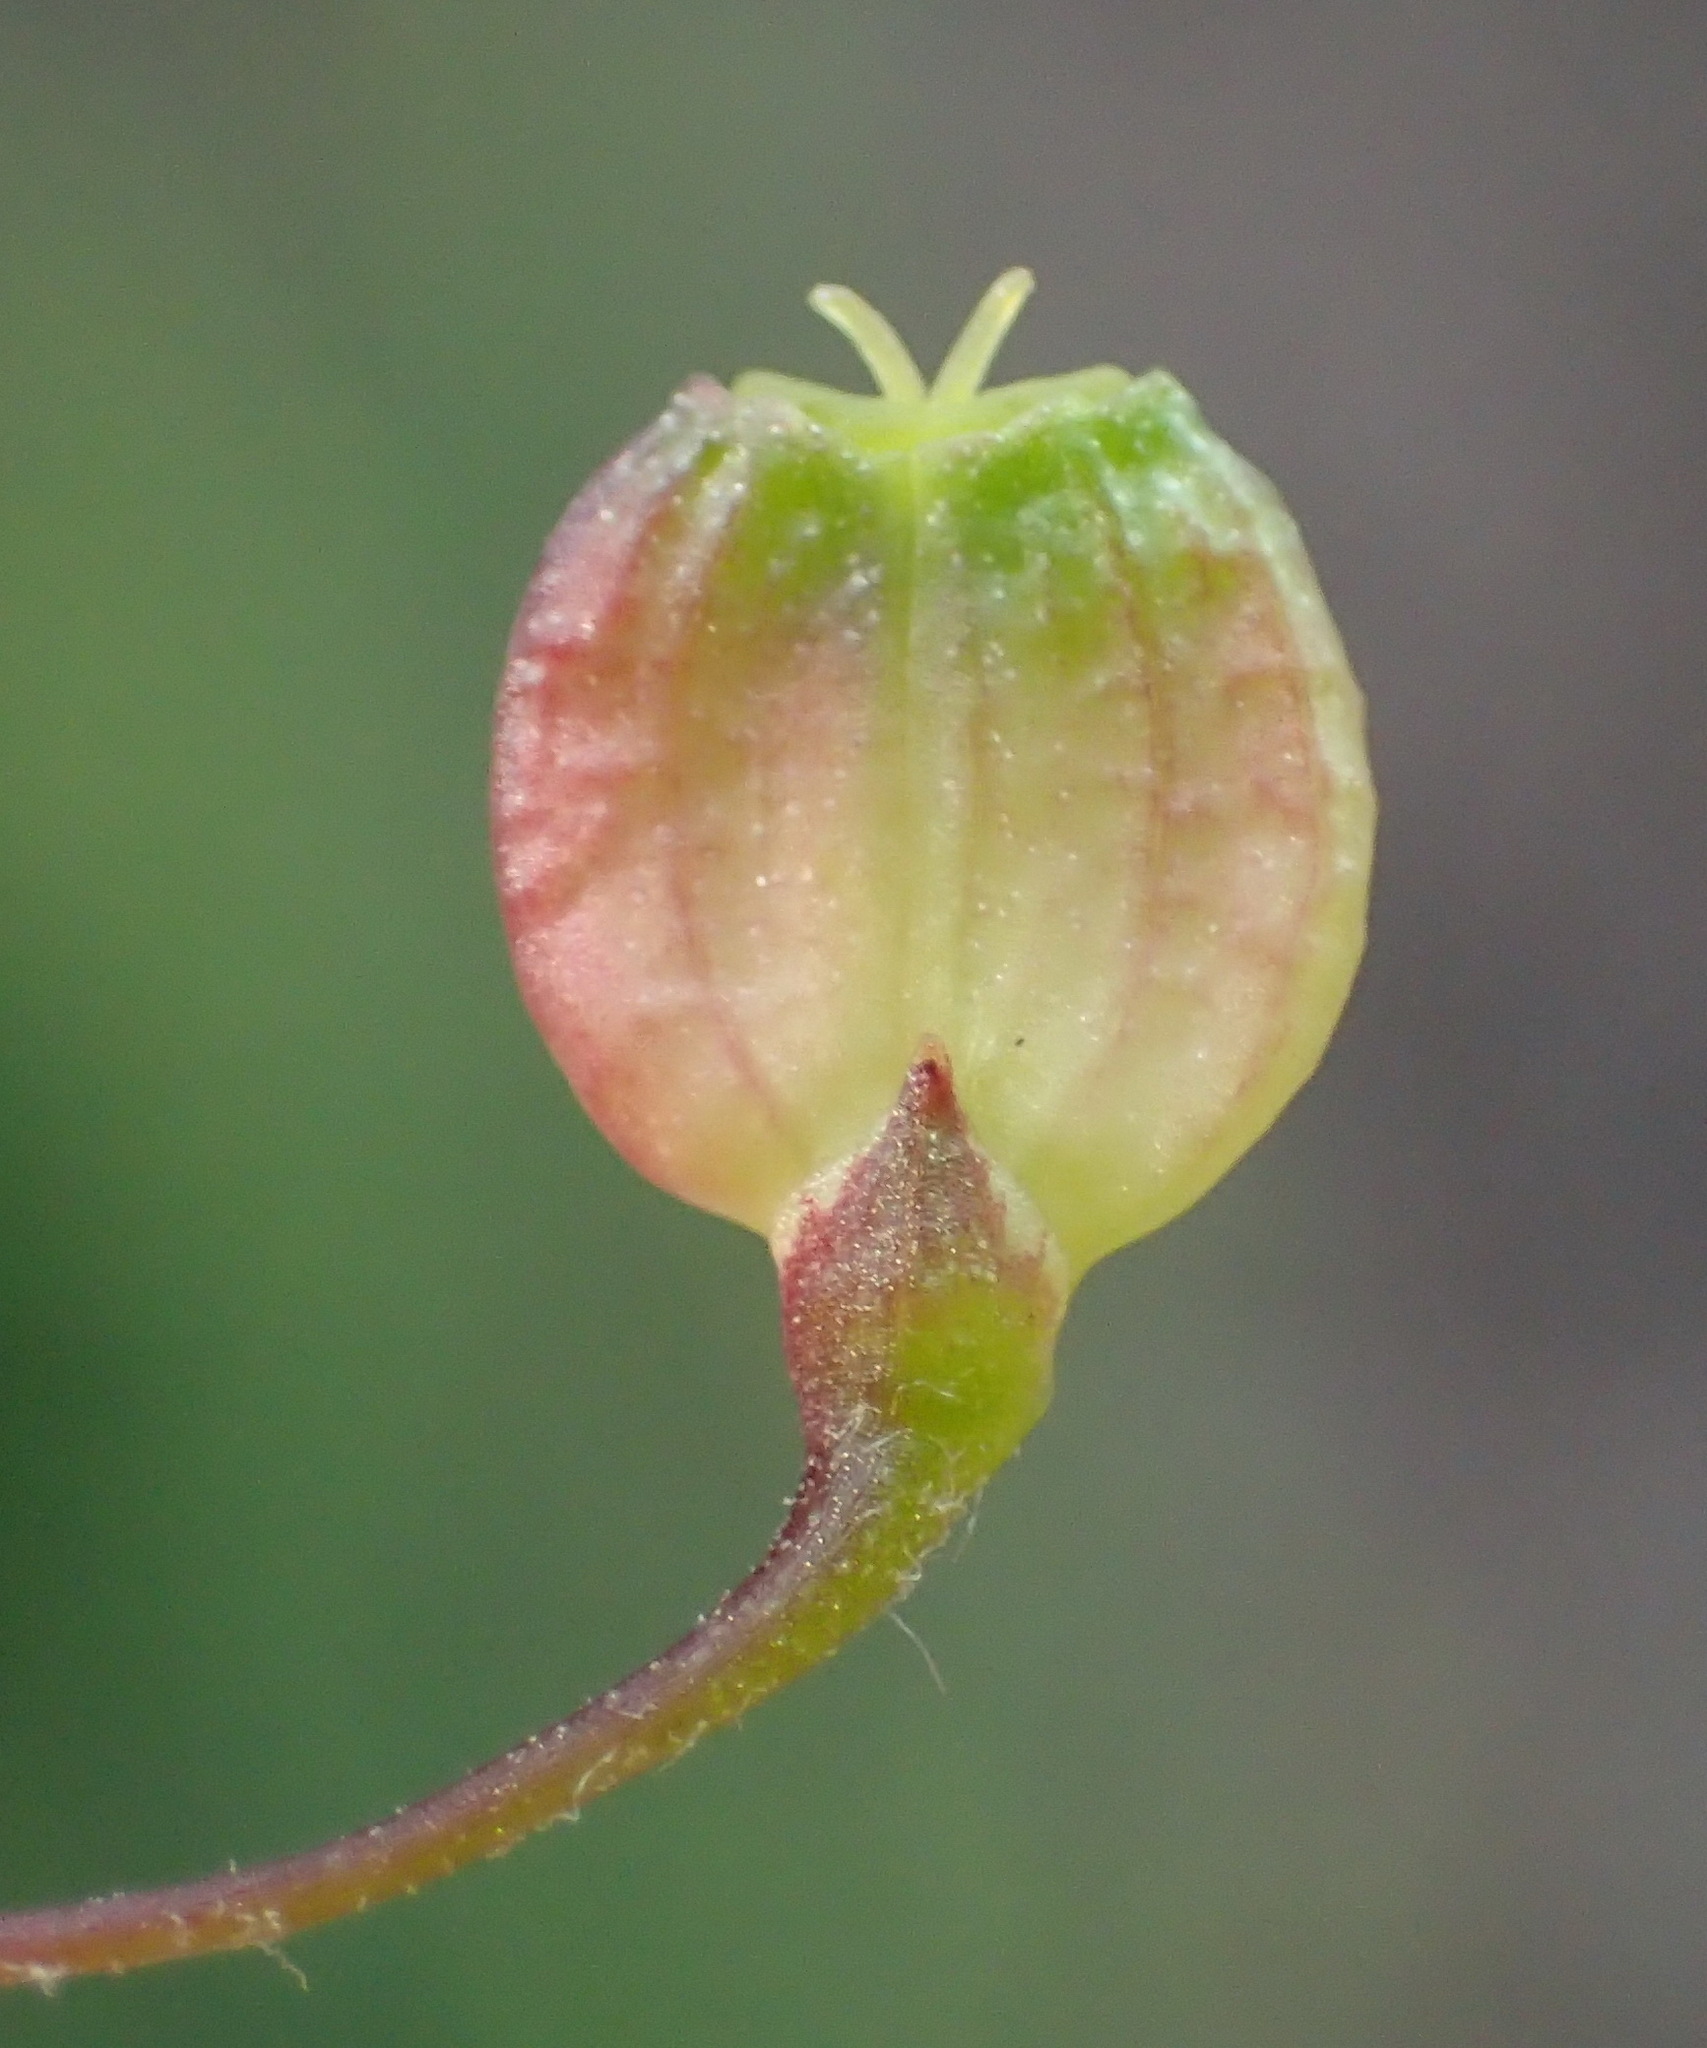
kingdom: Plantae
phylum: Tracheophyta
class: Magnoliopsida
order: Apiales
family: Apiaceae
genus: Centella
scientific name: Centella virgata
